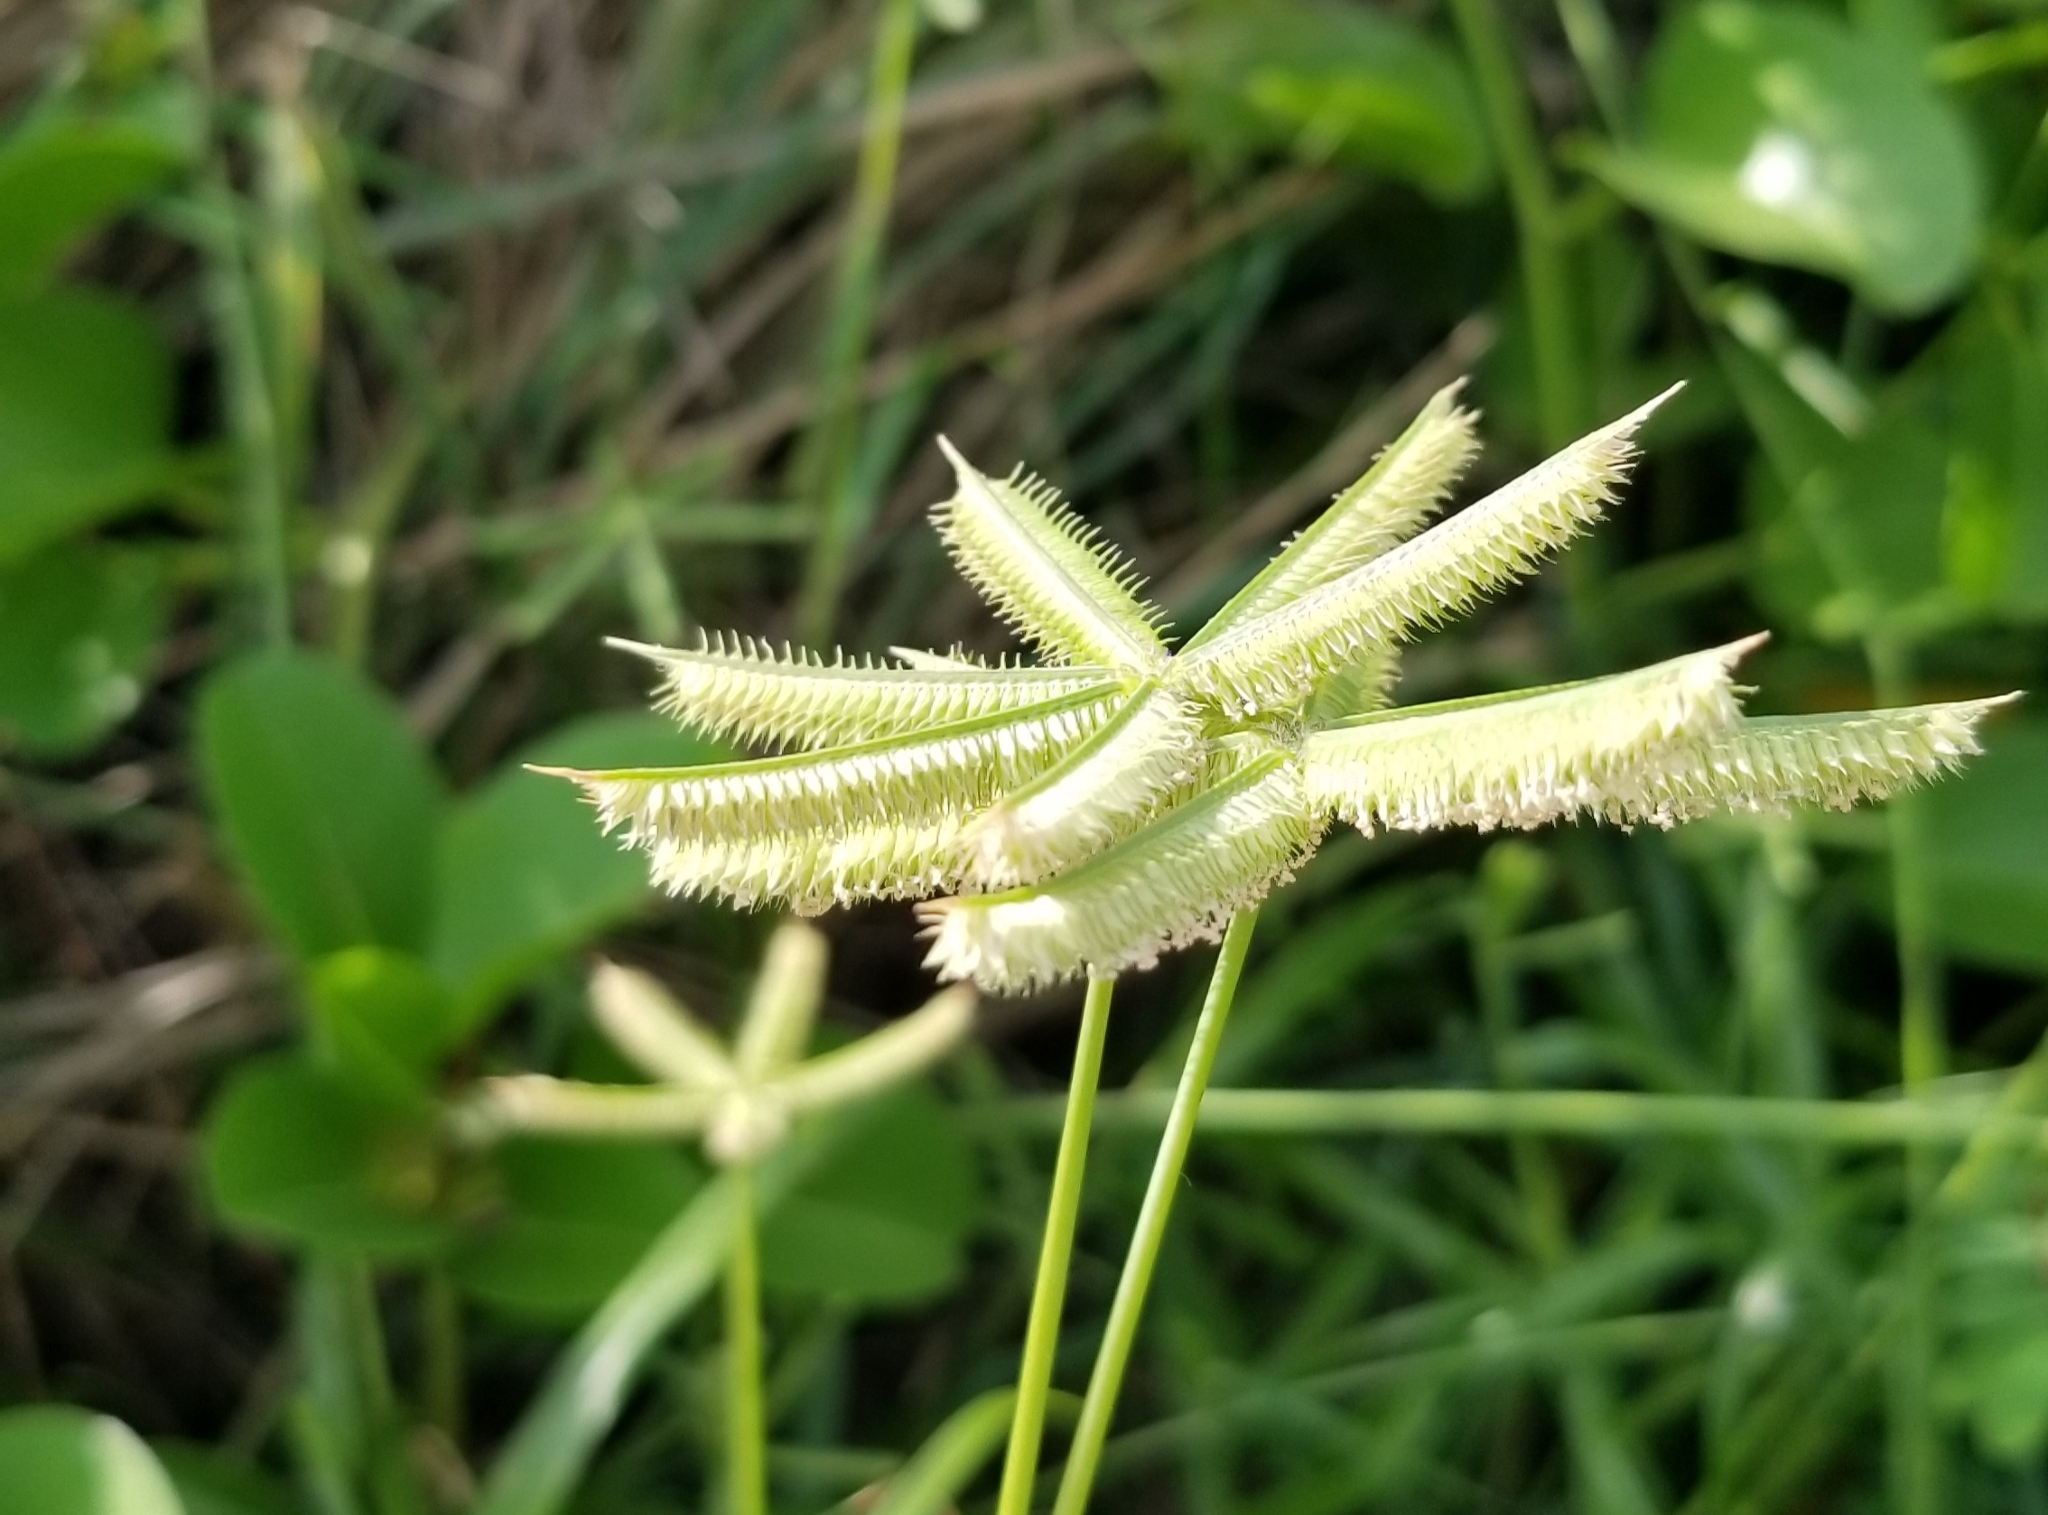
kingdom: Plantae
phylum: Tracheophyta
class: Liliopsida
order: Poales
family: Poaceae
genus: Dactyloctenium
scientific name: Dactyloctenium aegyptium
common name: Egyptian grass
